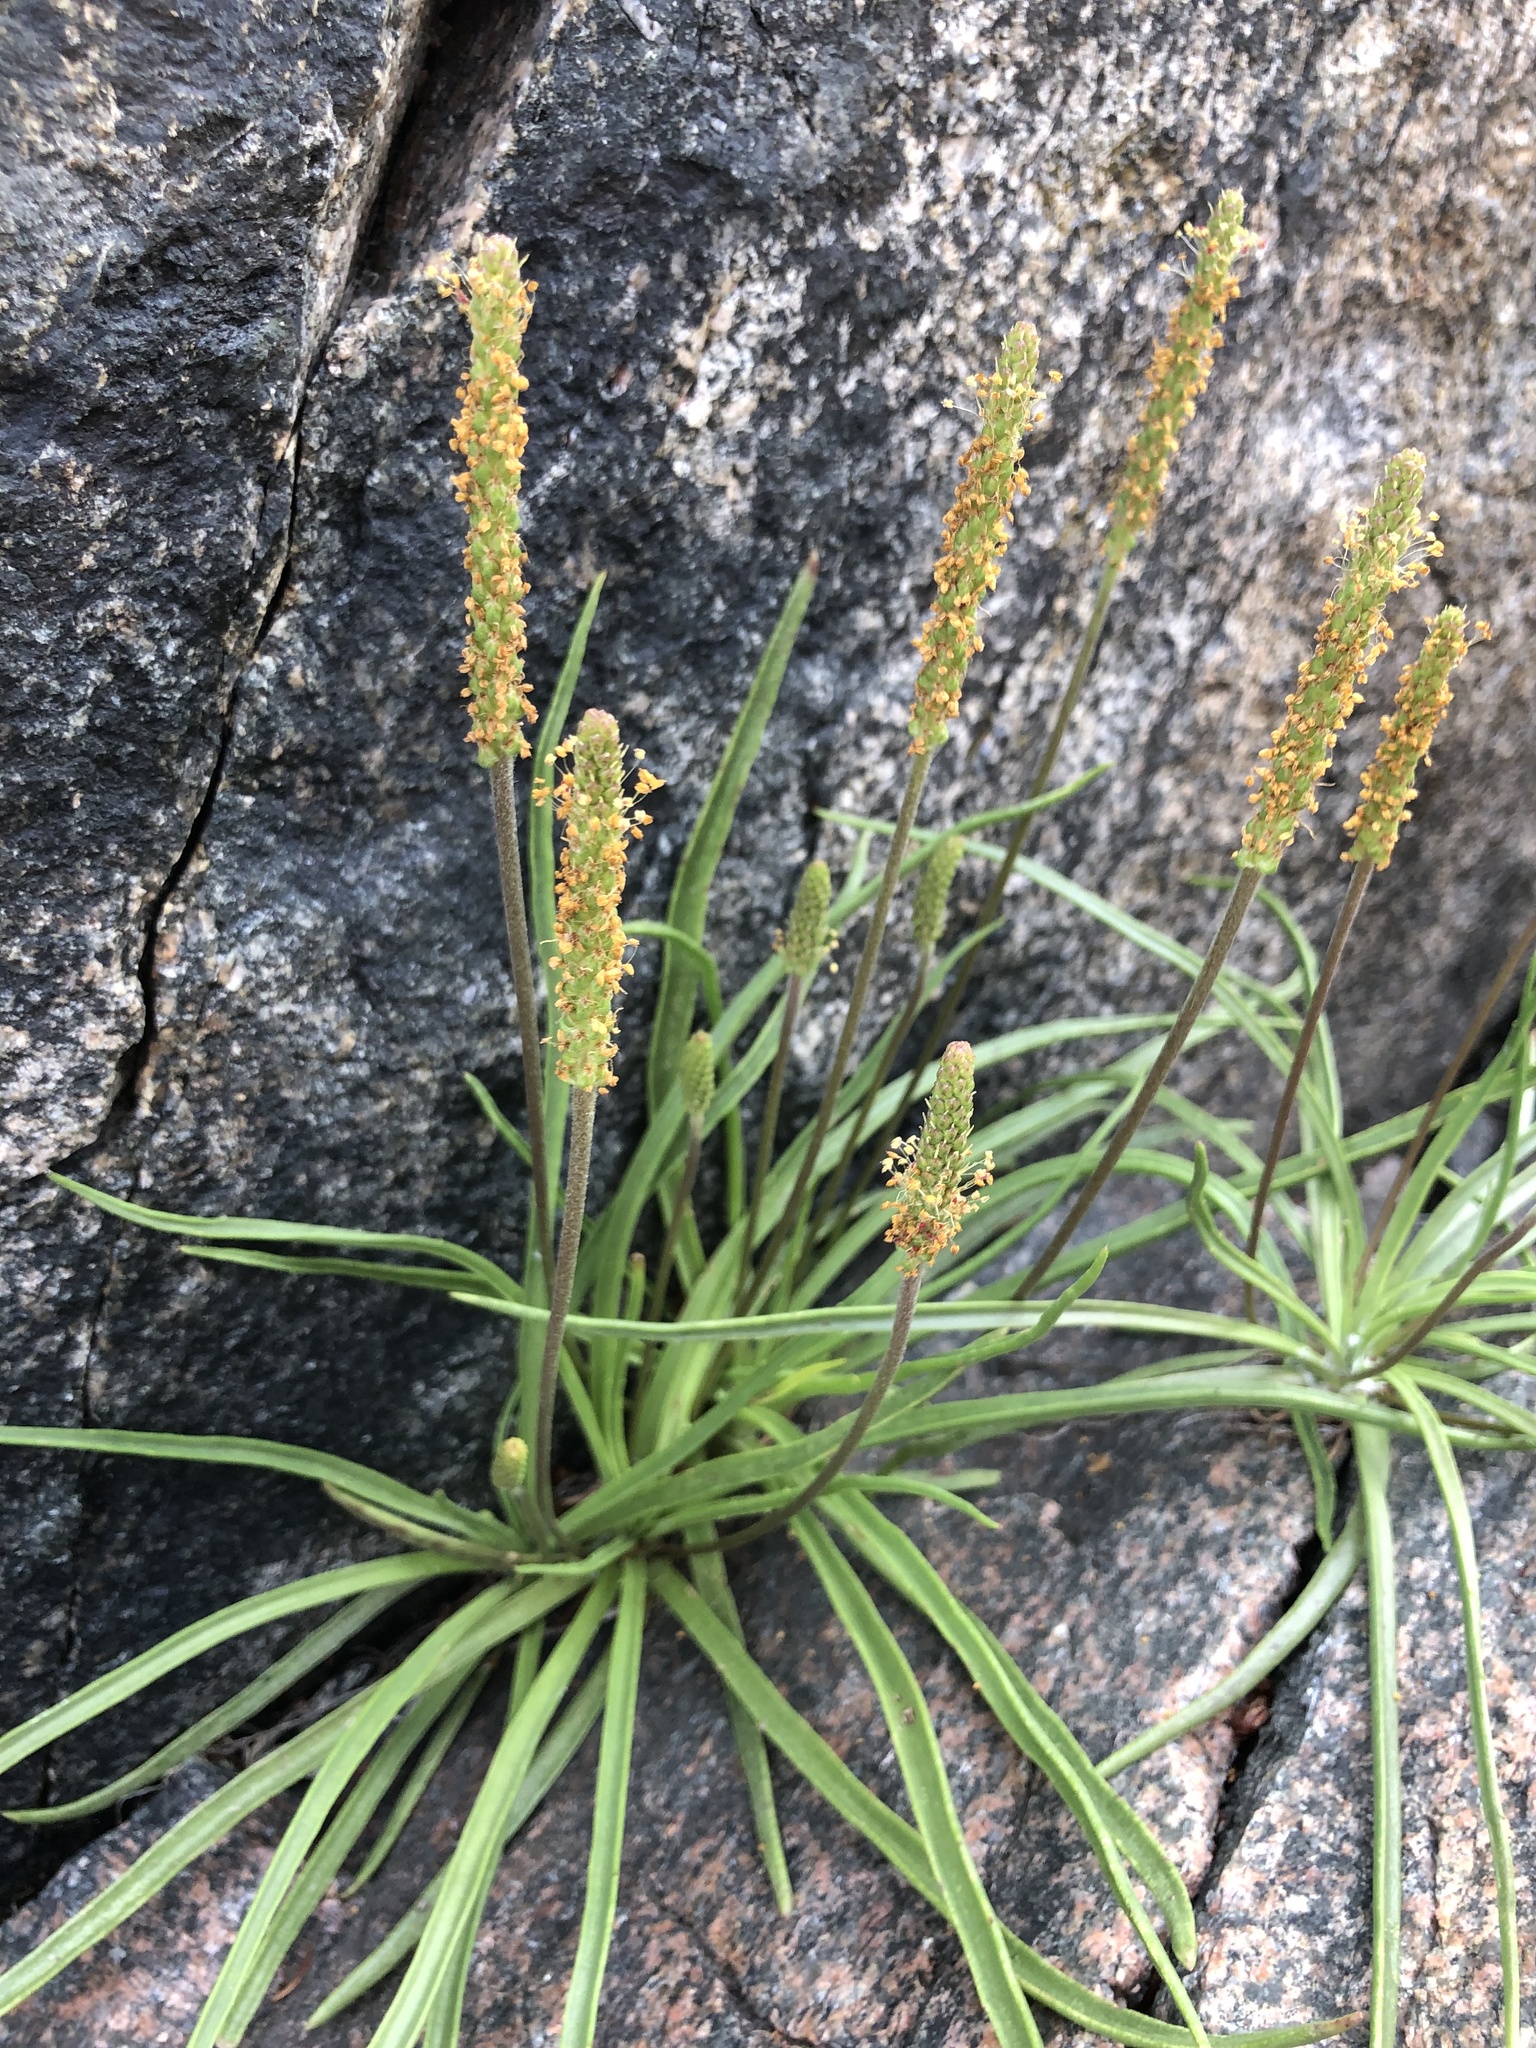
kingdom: Plantae
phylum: Tracheophyta
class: Magnoliopsida
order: Lamiales
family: Plantaginaceae
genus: Plantago
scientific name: Plantago maritima
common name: Sea plantain
